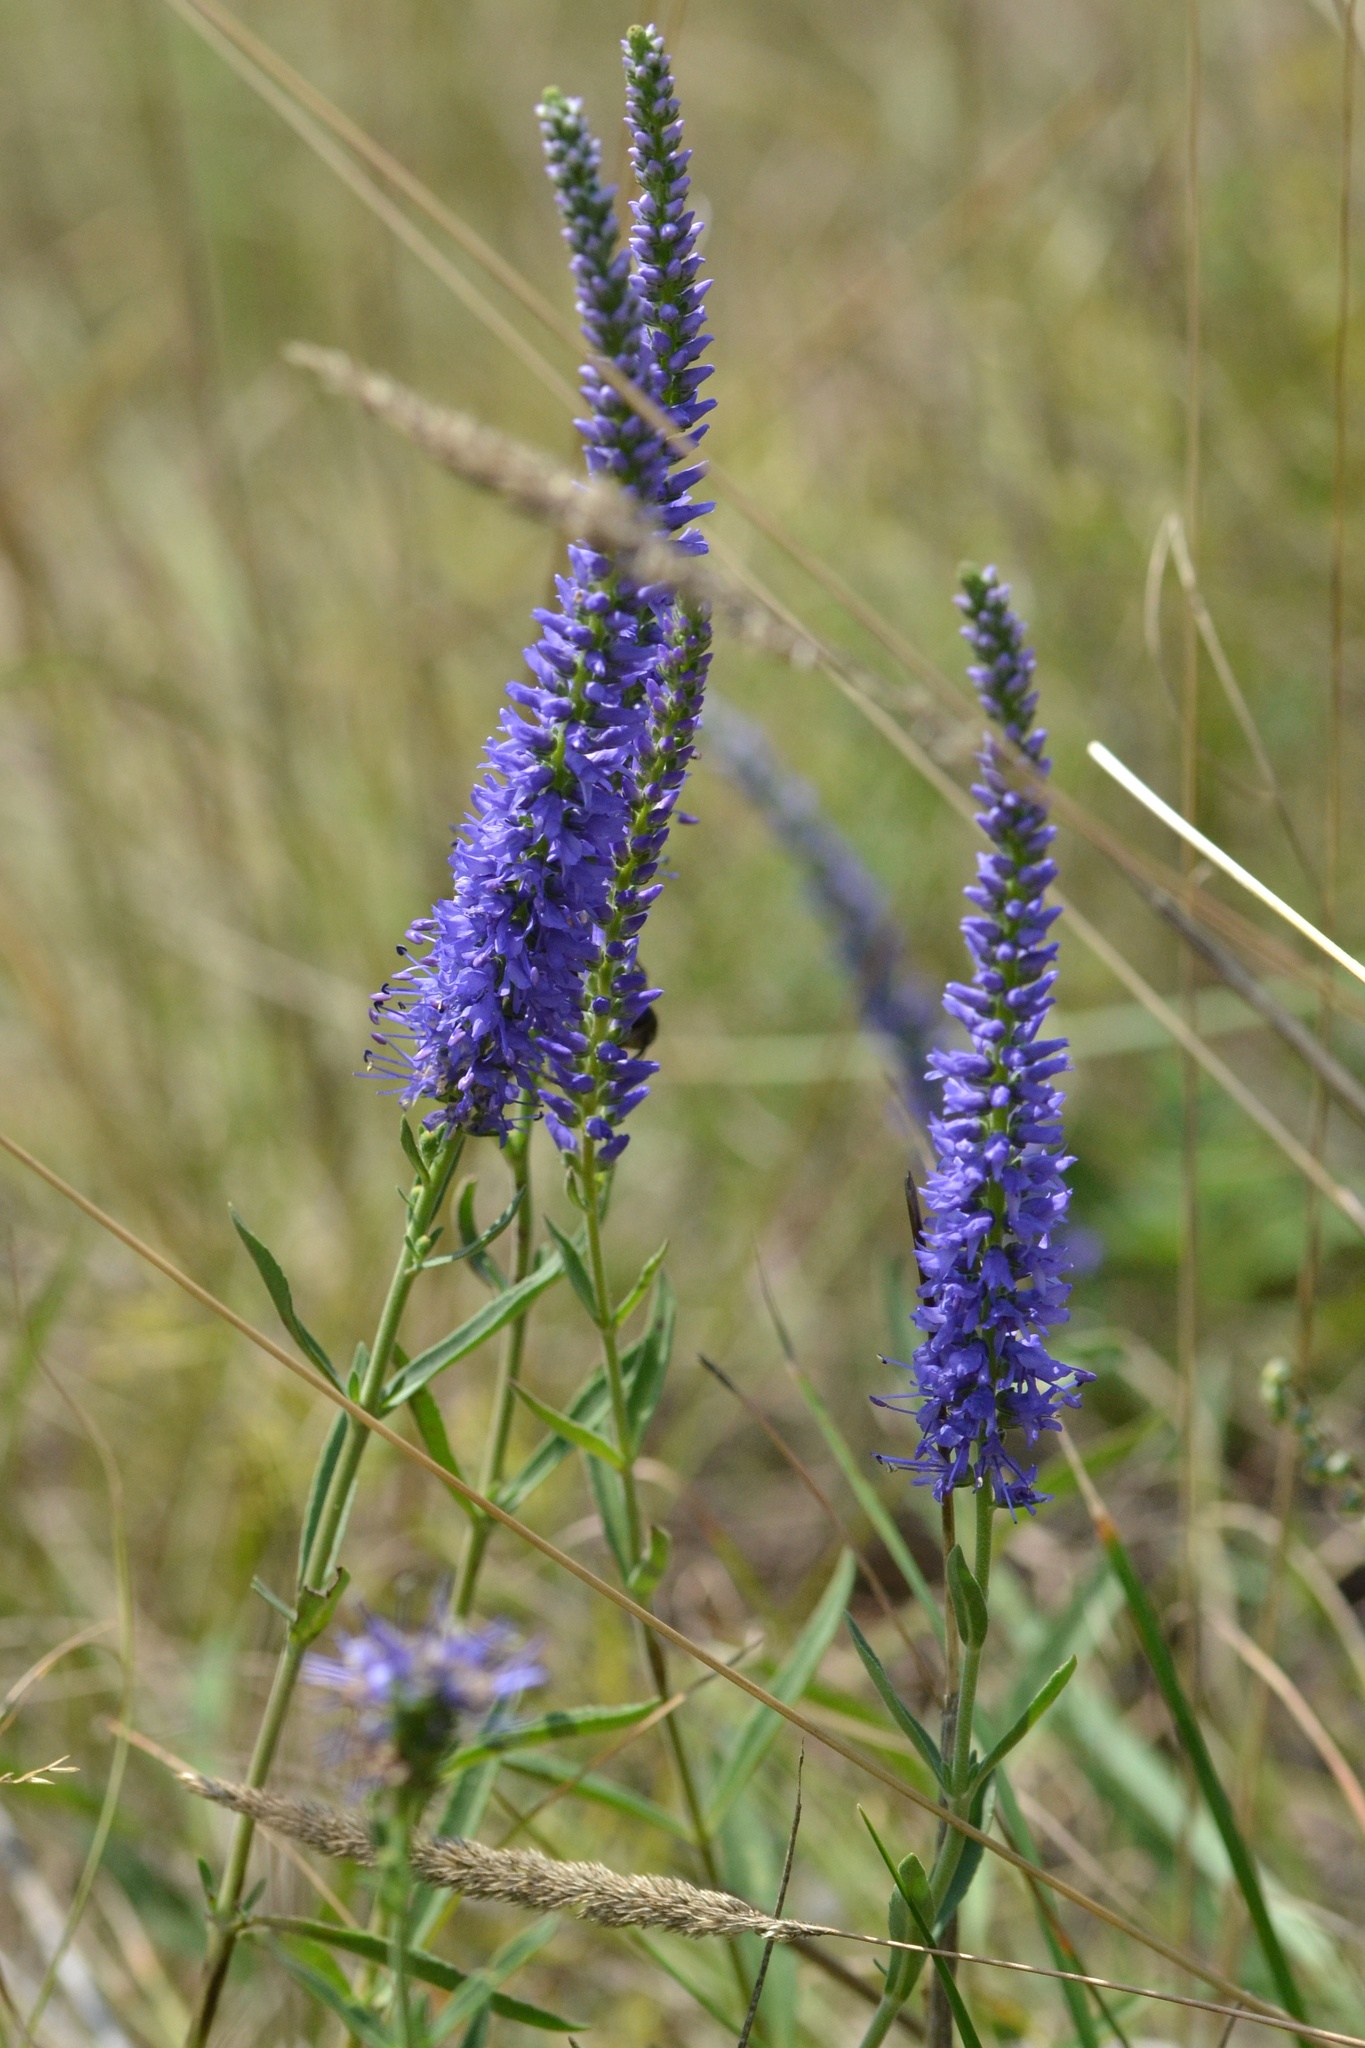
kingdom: Plantae
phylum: Tracheophyta
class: Magnoliopsida
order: Lamiales
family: Plantaginaceae
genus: Veronica
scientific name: Veronica spicata
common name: Spiked speedwell
